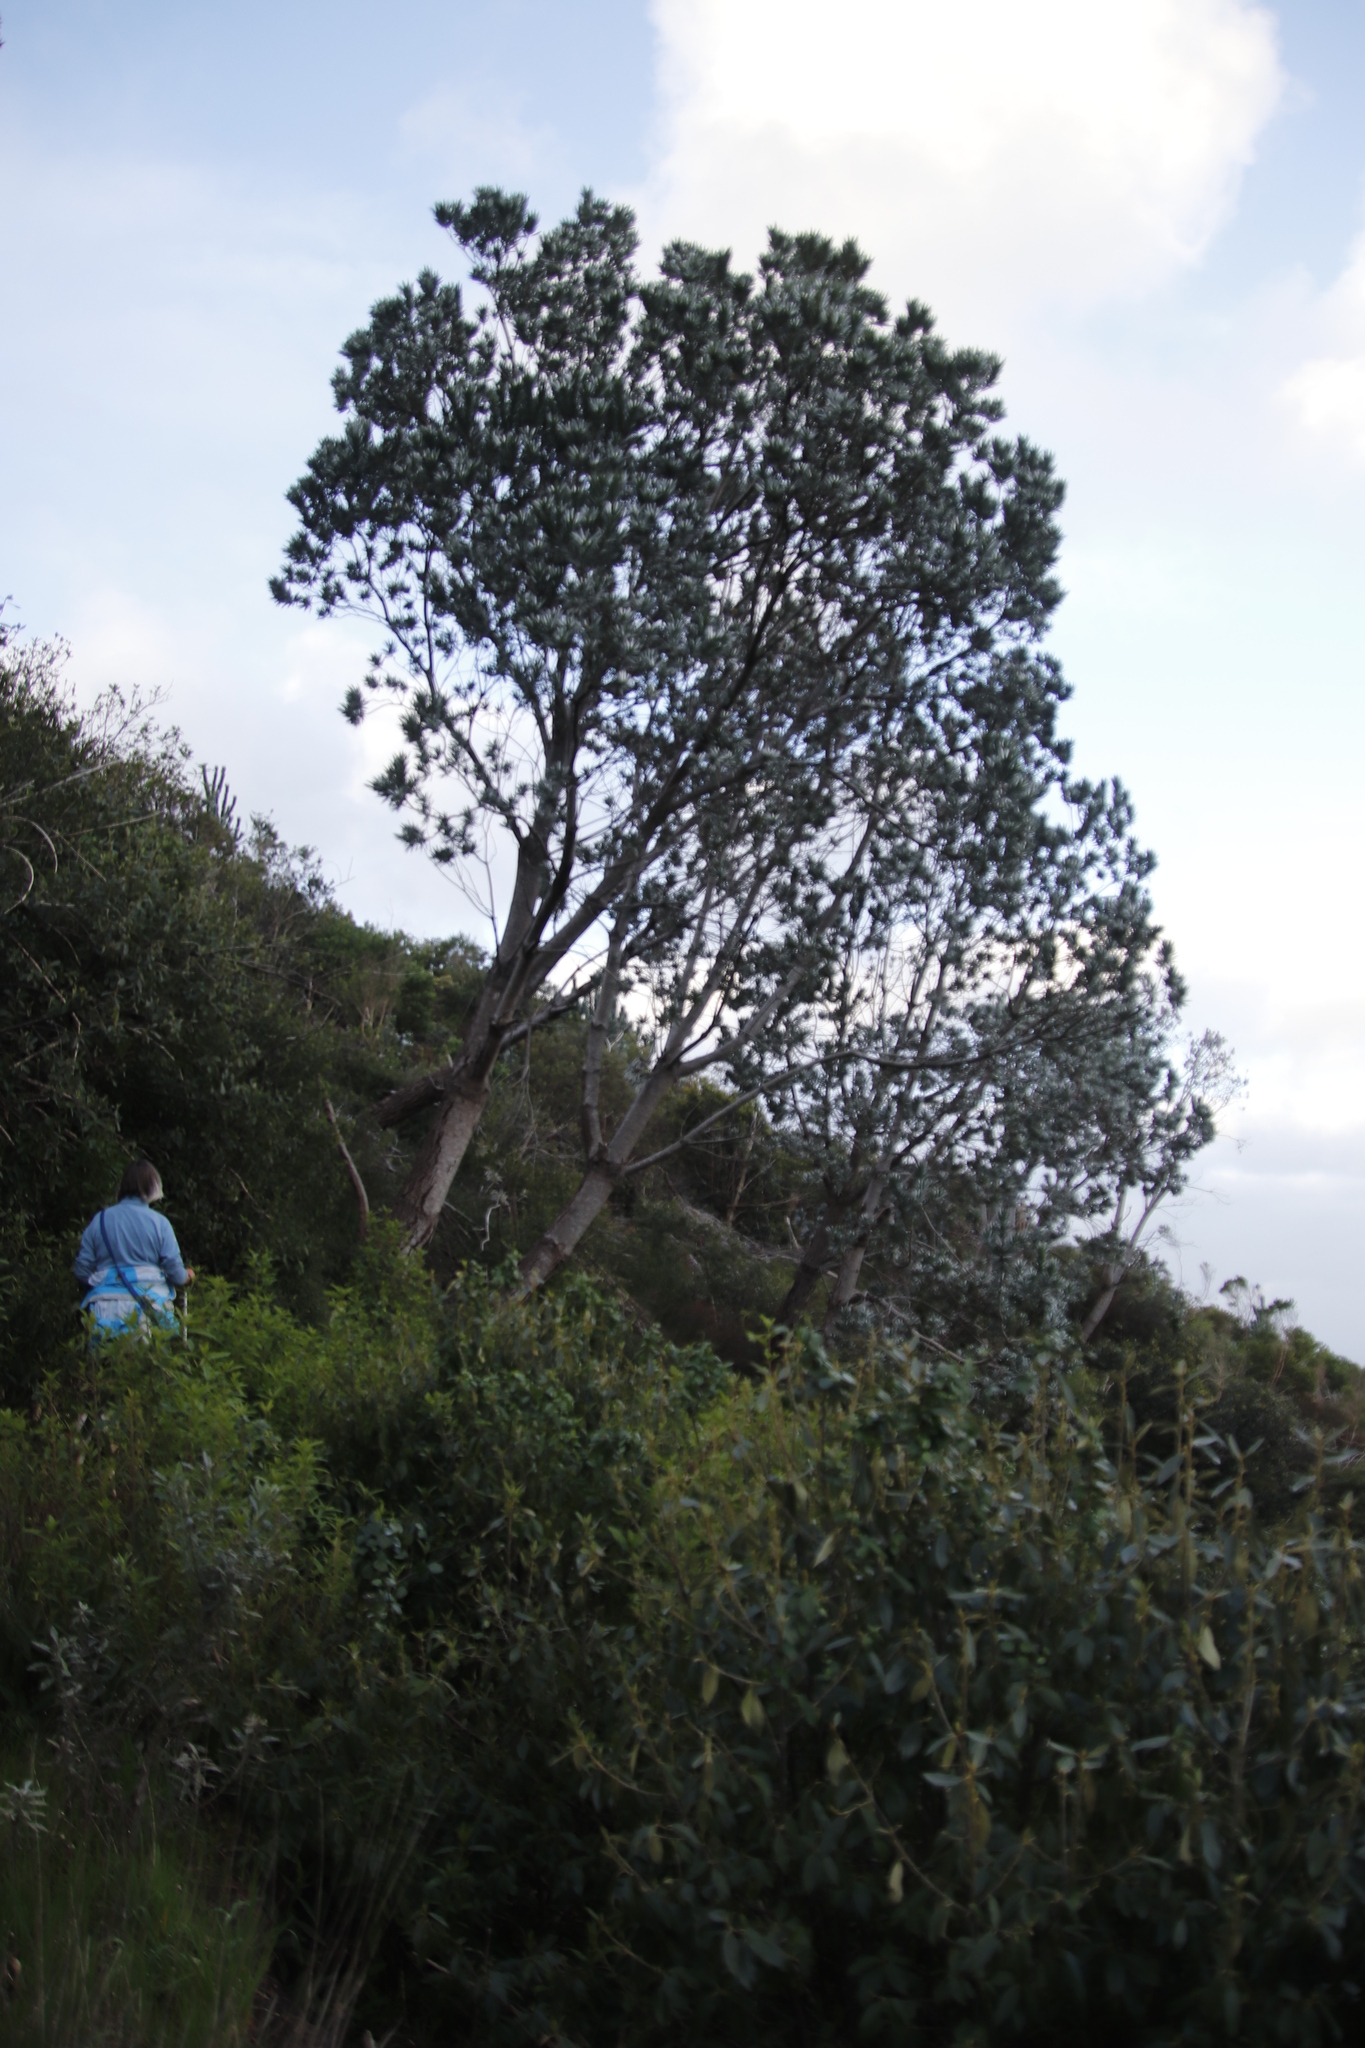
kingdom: Plantae
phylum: Tracheophyta
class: Magnoliopsida
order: Proteales
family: Proteaceae
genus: Leucadendron
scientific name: Leucadendron argenteum
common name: Cape silver tree
